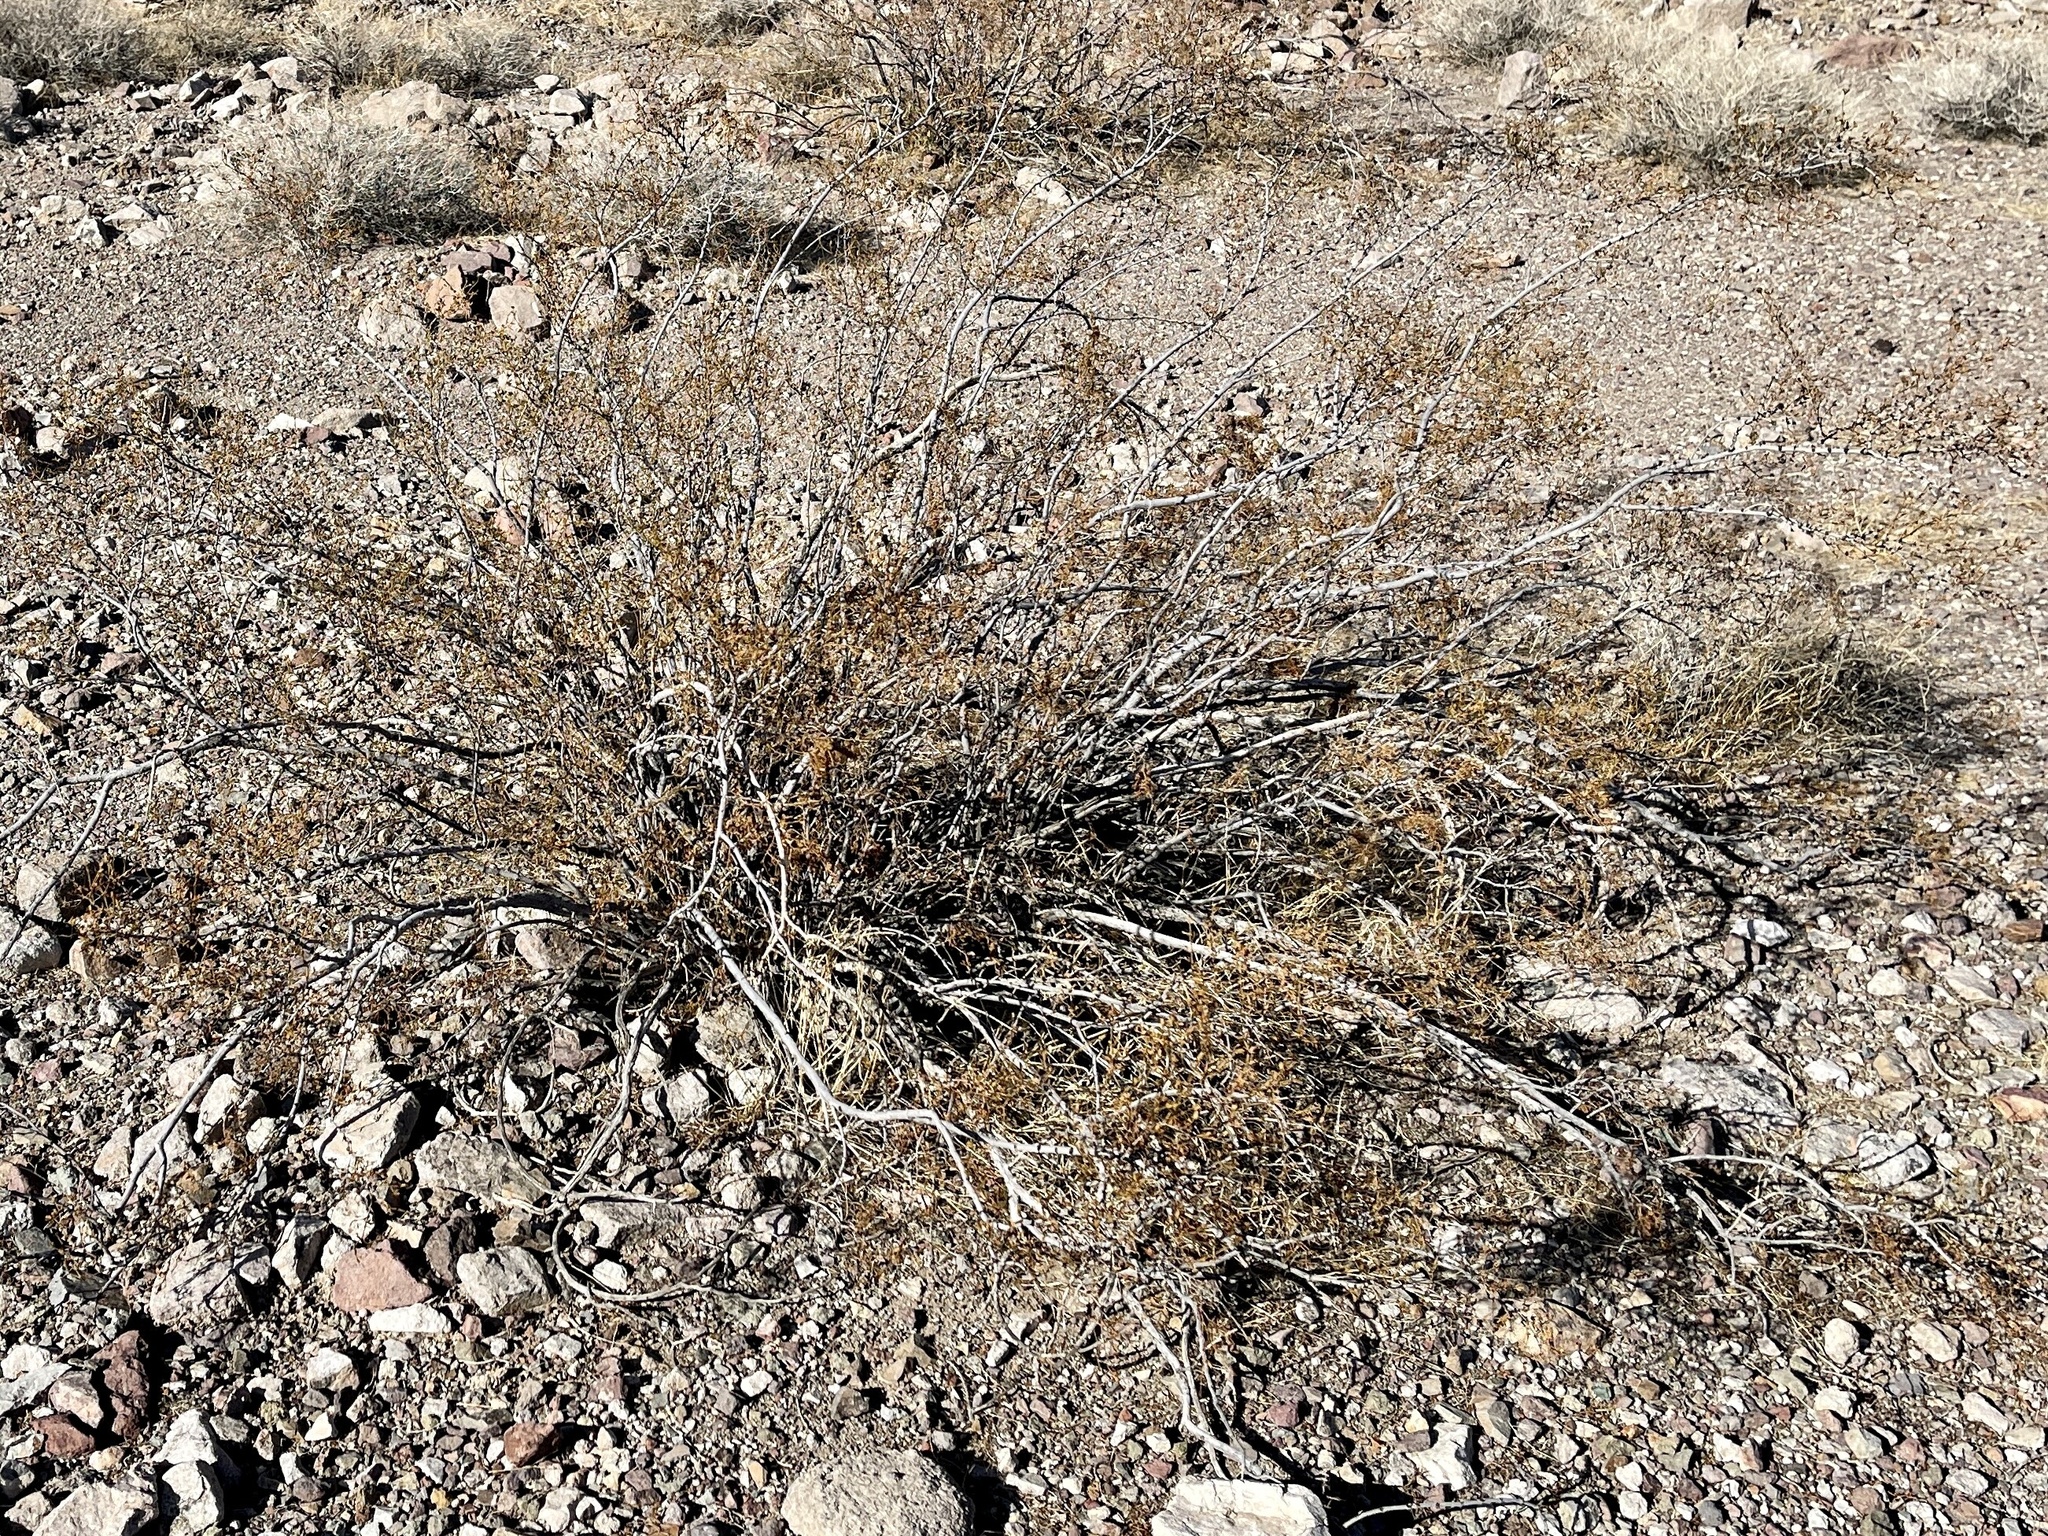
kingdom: Plantae
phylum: Tracheophyta
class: Magnoliopsida
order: Zygophyllales
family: Zygophyllaceae
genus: Larrea
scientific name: Larrea tridentata
